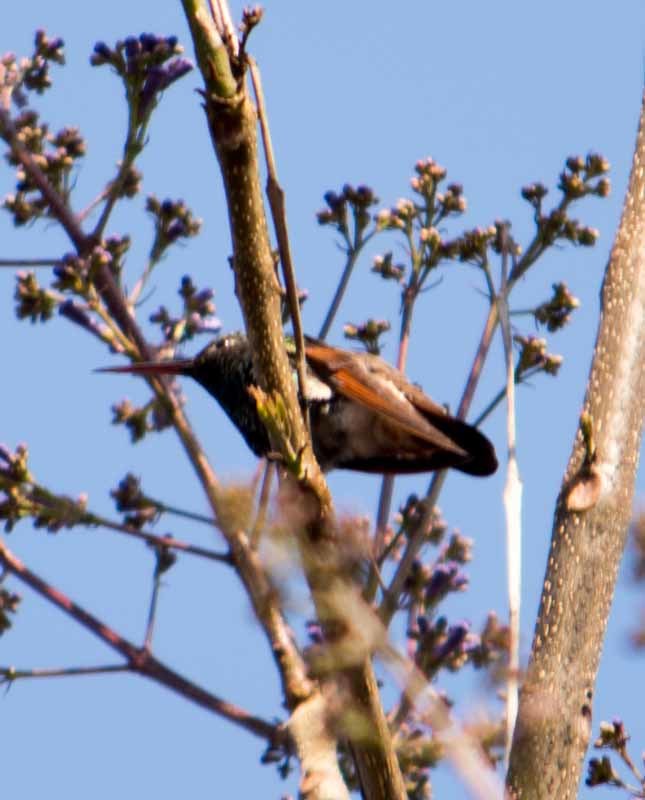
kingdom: Animalia
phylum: Chordata
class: Aves
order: Apodiformes
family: Trochilidae
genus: Saucerottia
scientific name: Saucerottia beryllina
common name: Berylline hummingbird
